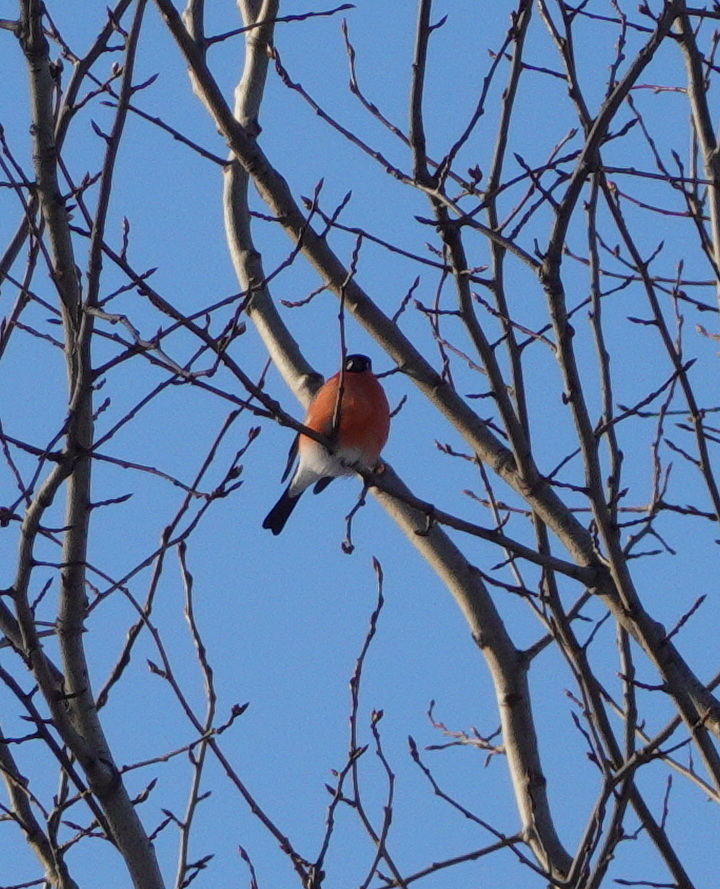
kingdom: Animalia
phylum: Chordata
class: Aves
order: Passeriformes
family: Fringillidae
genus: Pyrrhula
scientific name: Pyrrhula pyrrhula
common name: Eurasian bullfinch
